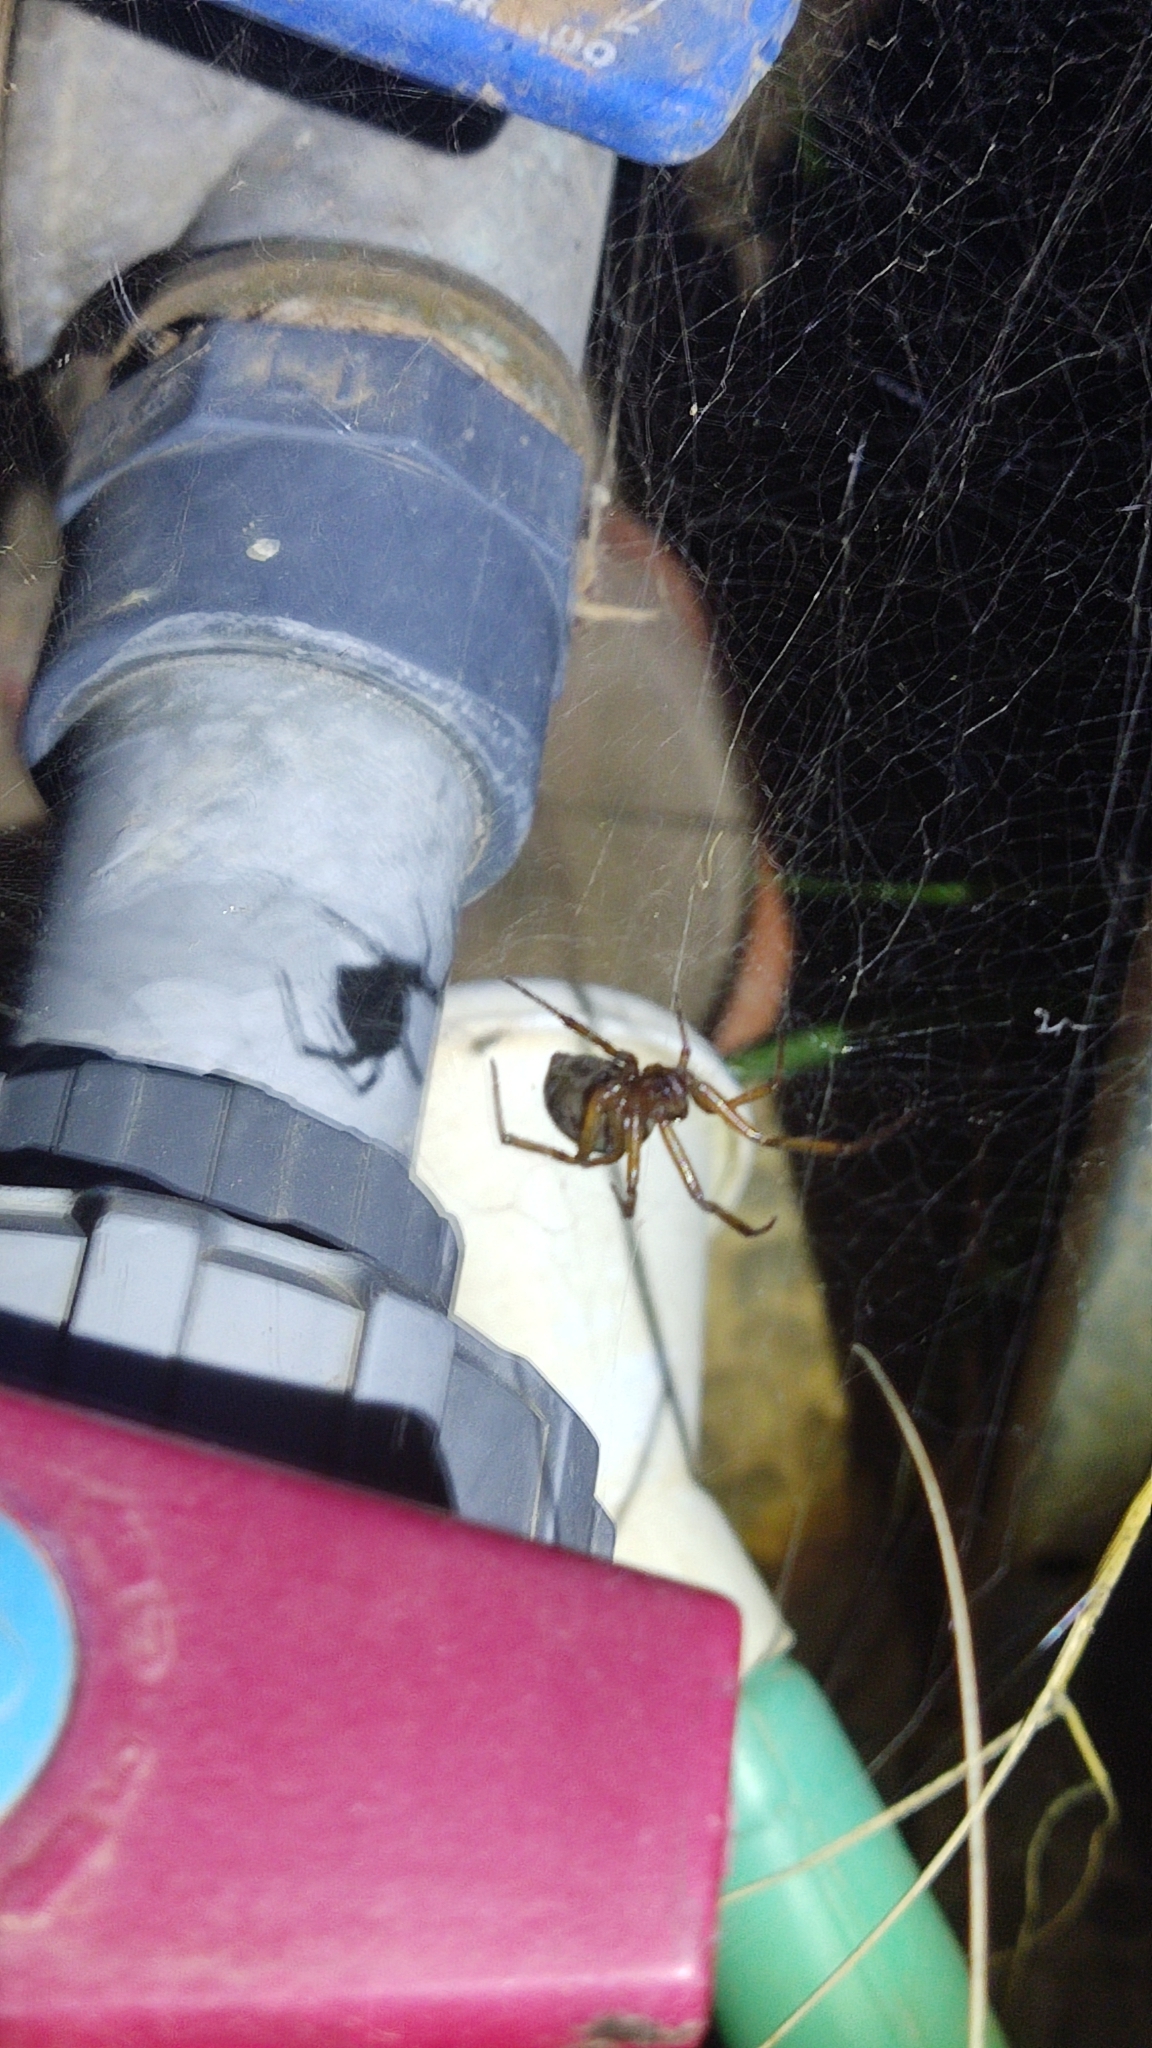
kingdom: Animalia
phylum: Arthropoda
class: Arachnida
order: Araneae
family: Theridiidae
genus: Steatoda
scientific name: Steatoda nobilis
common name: Cobweb weaver
